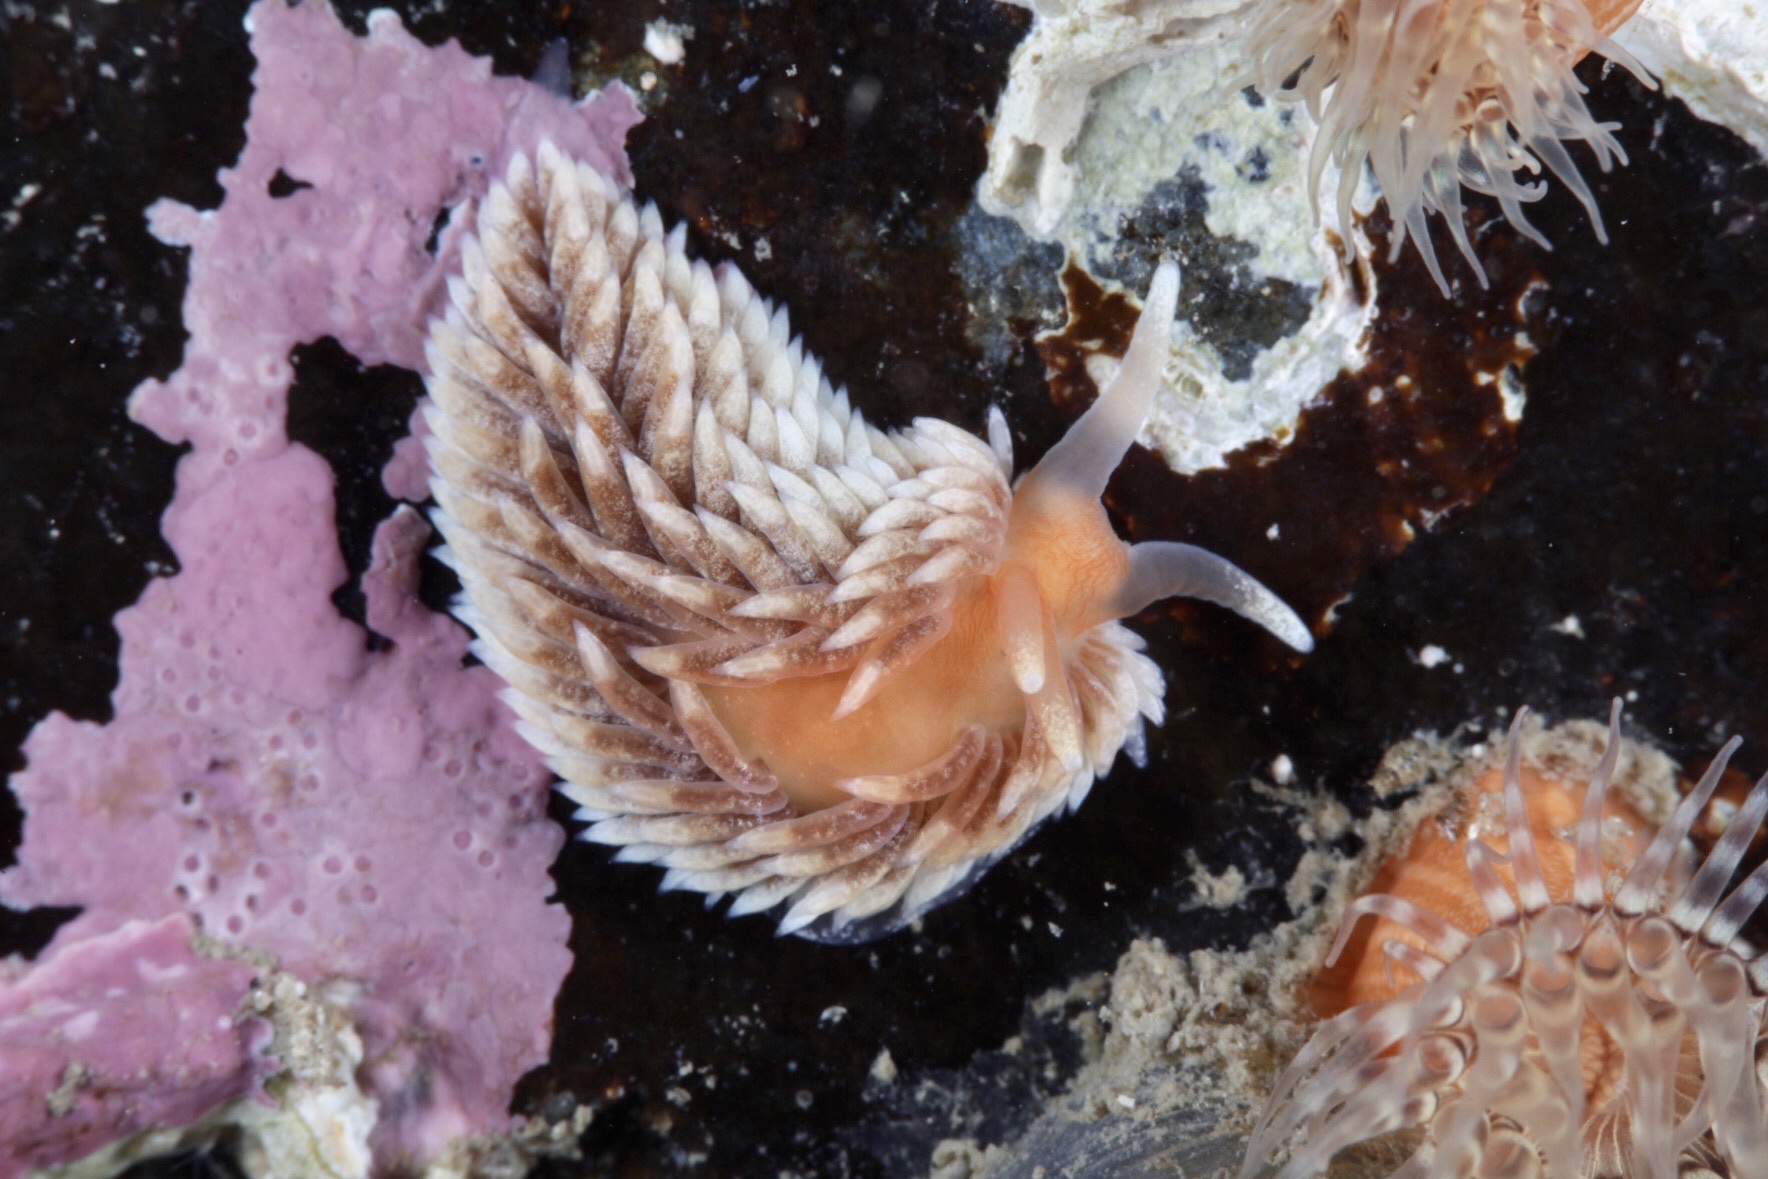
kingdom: Animalia
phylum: Mollusca
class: Gastropoda
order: Nudibranchia
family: Aeolidiidae
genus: Aeolidiella
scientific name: Aeolidiella glauca
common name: Orange-brown aeolid
